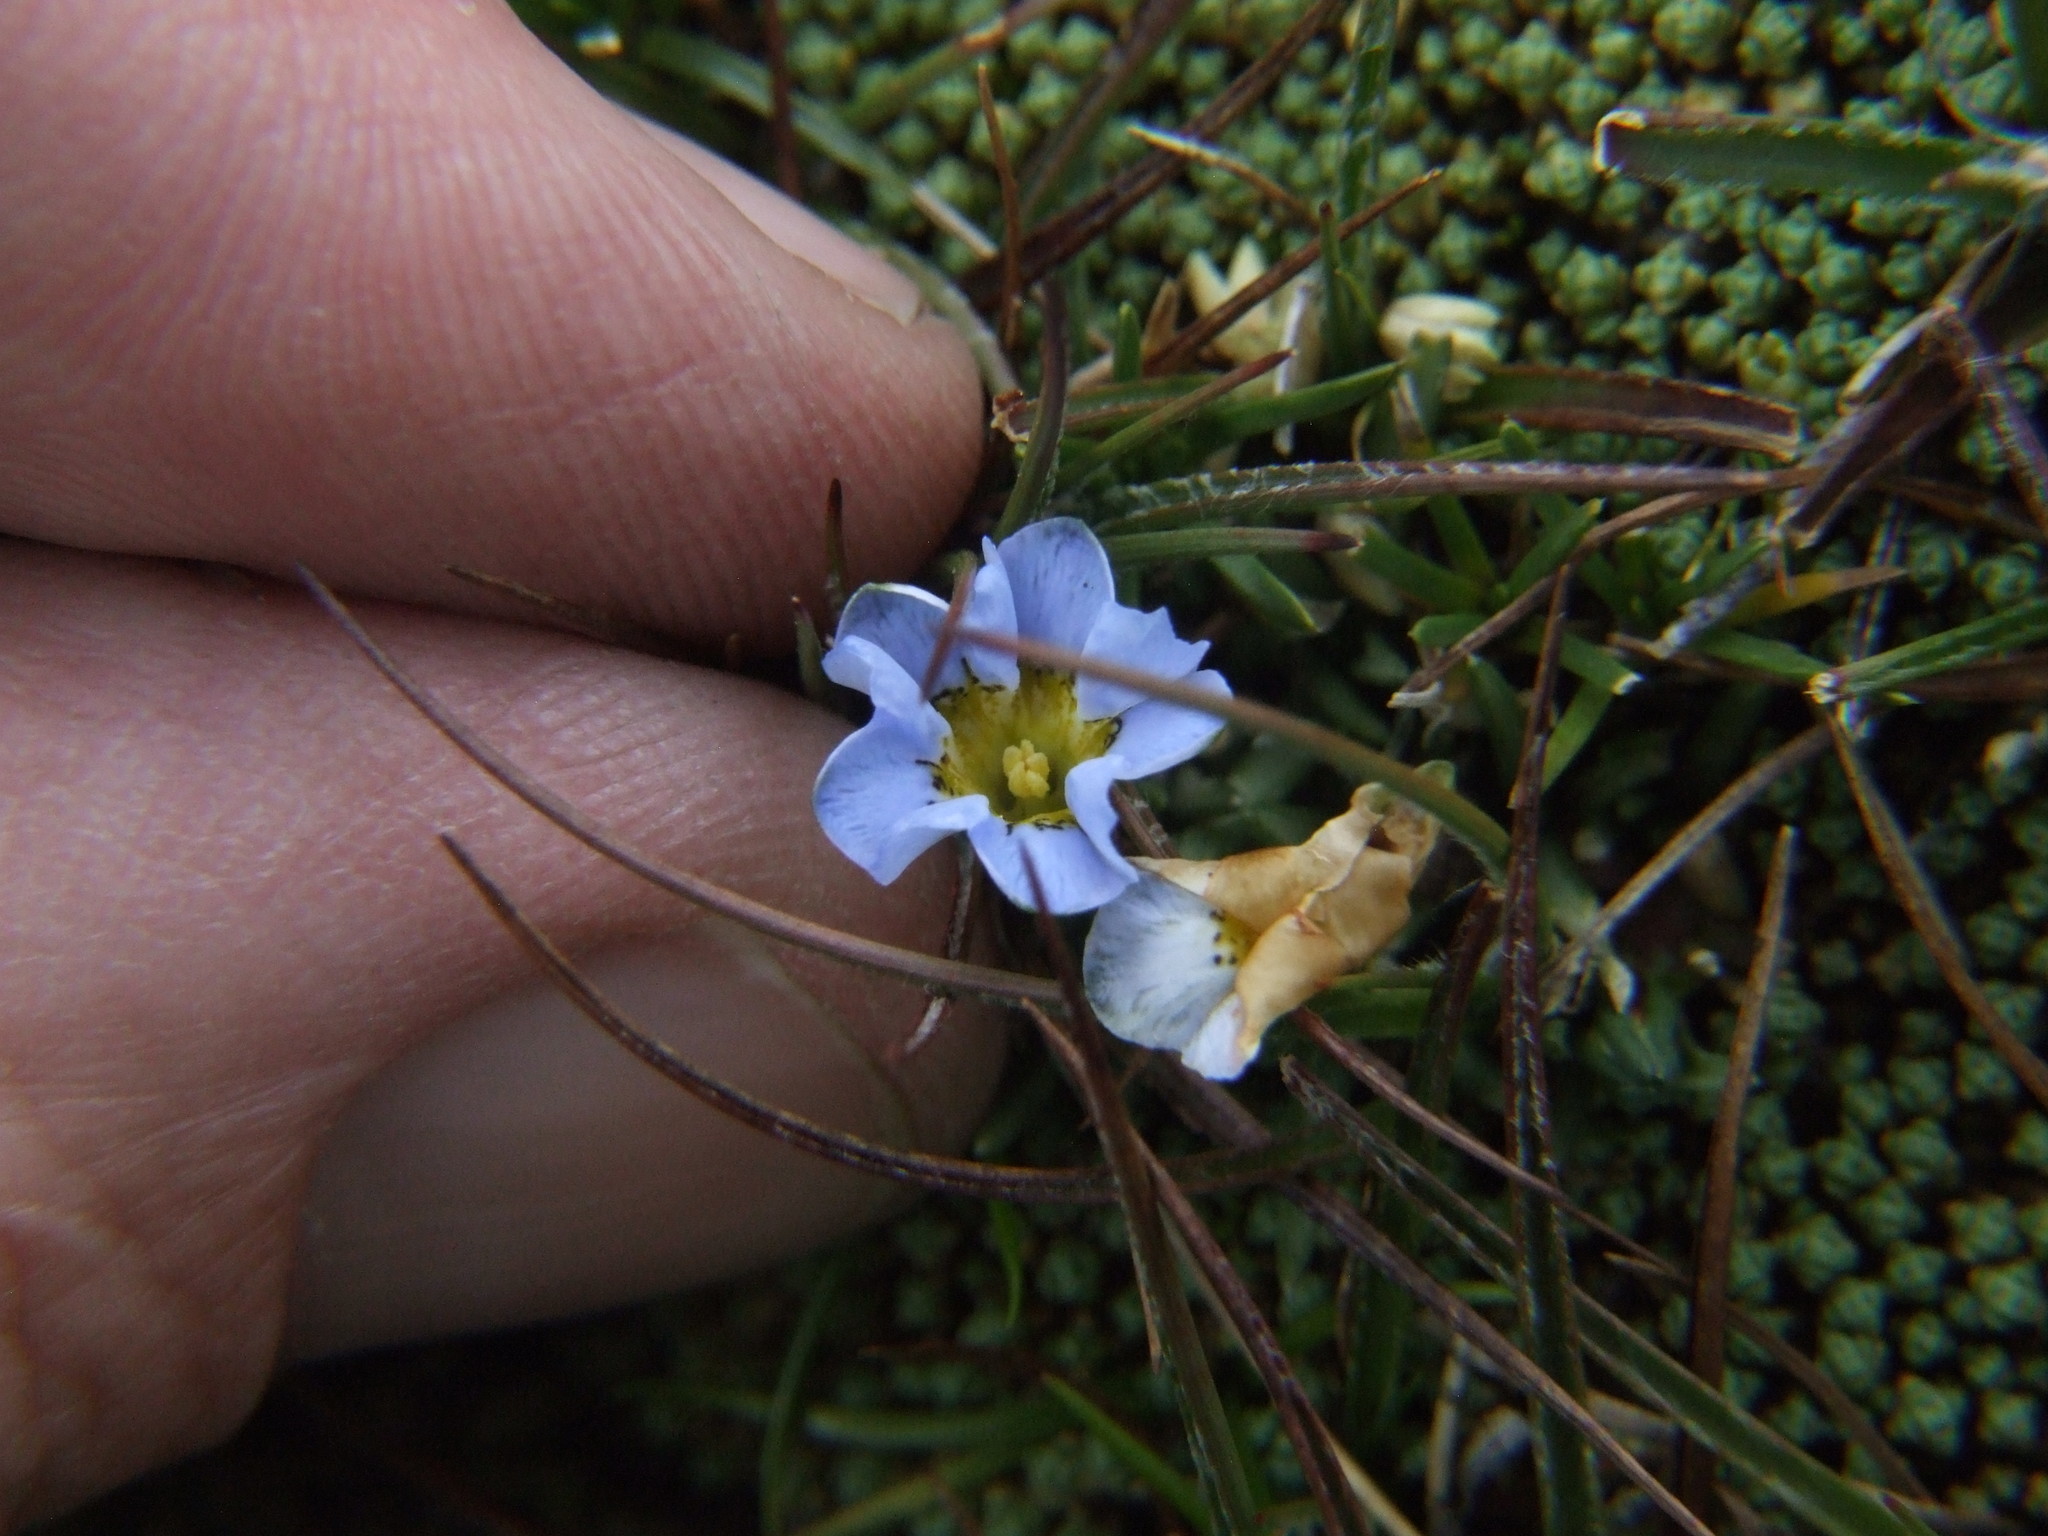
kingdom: Plantae
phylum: Tracheophyta
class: Magnoliopsida
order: Gentianales
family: Gentianaceae
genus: Gentiana
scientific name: Gentiana sedifolia
